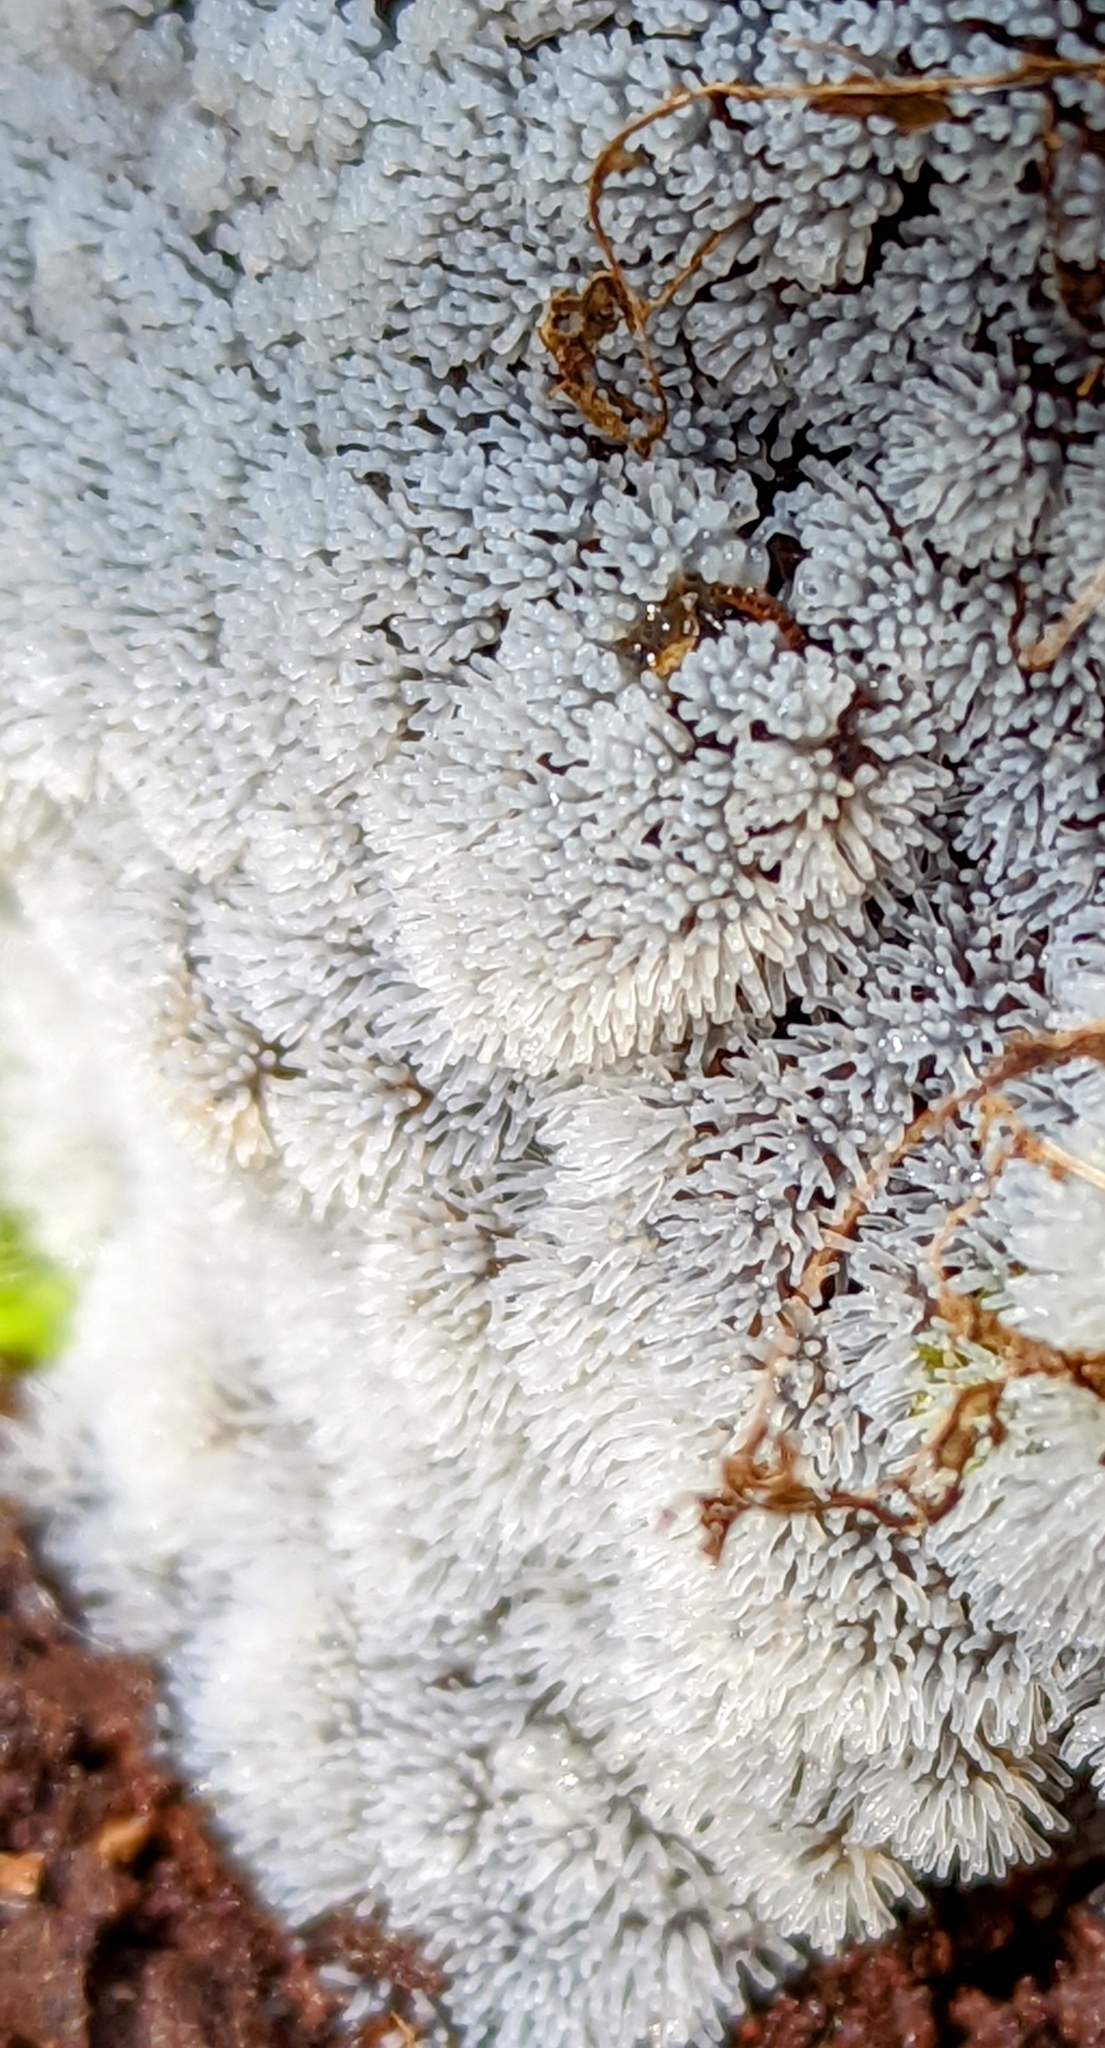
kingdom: Protozoa
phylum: Mycetozoa
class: Protosteliomycetes
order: Ceratiomyxales
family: Ceratiomyxaceae
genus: Ceratiomyxa
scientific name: Ceratiomyxa fruticulosa
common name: Honeycomb coral slime mold
